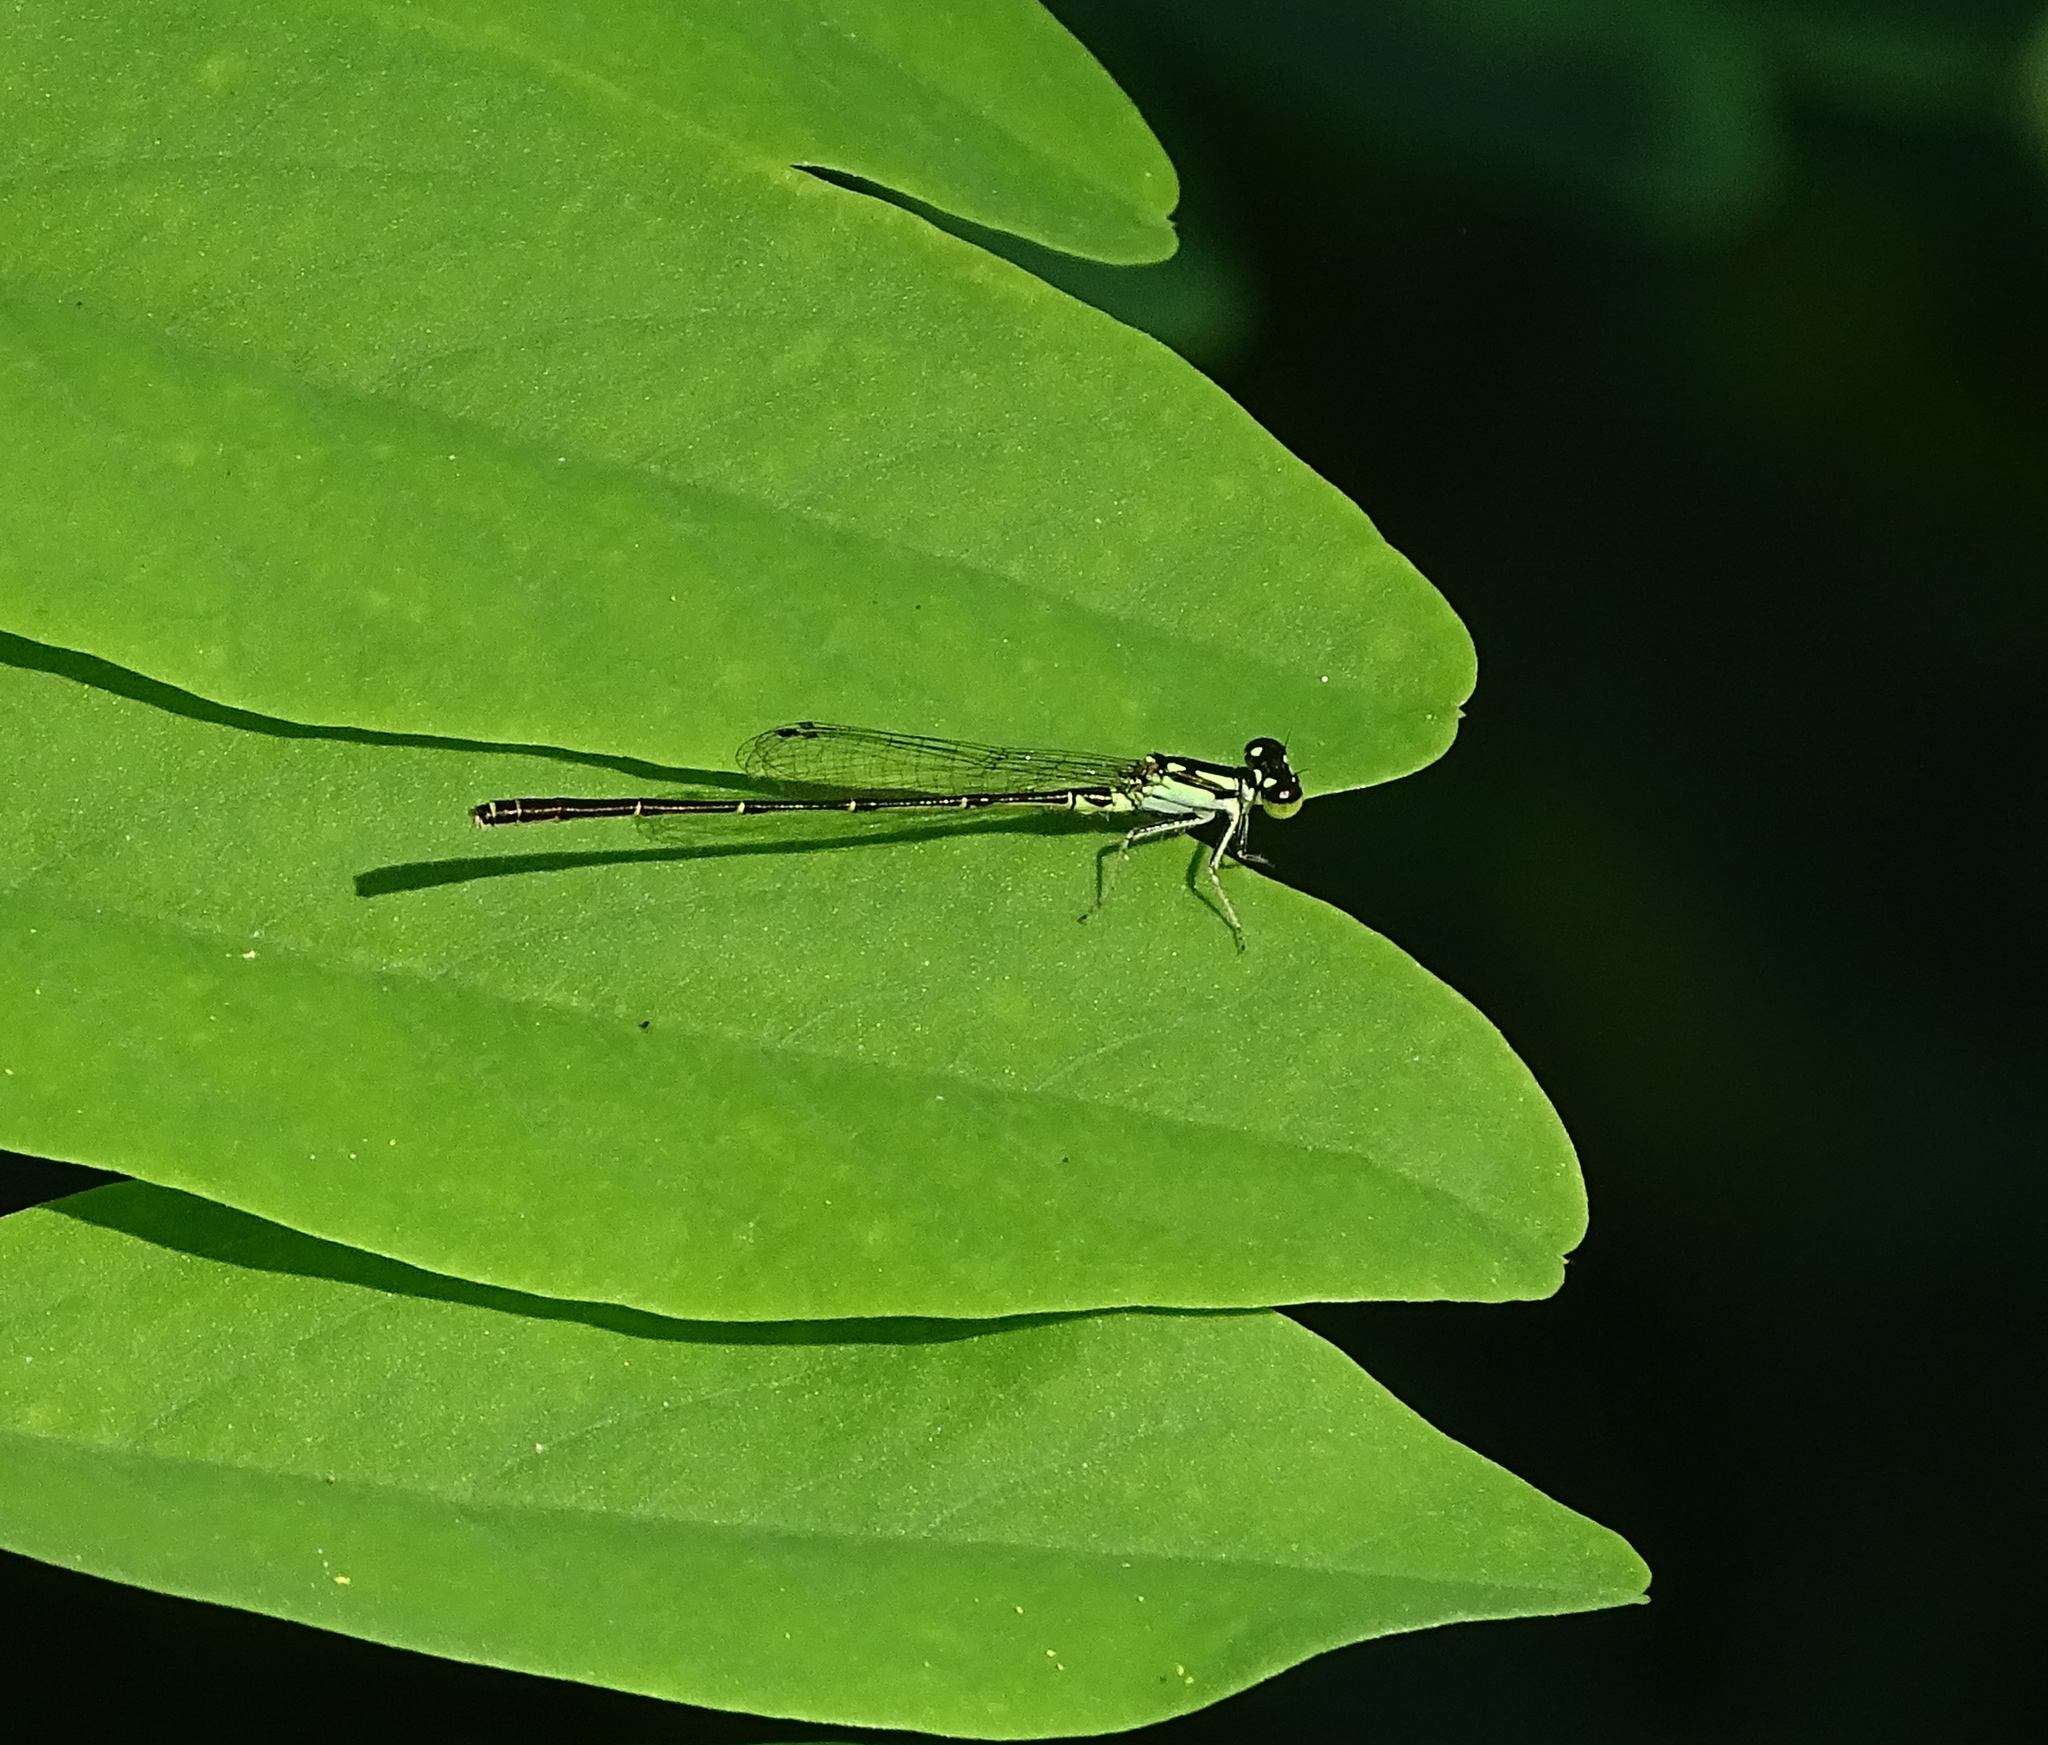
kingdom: Animalia
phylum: Arthropoda
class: Insecta
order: Odonata
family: Coenagrionidae
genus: Ischnura
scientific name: Ischnura posita
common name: Fragile forktail
